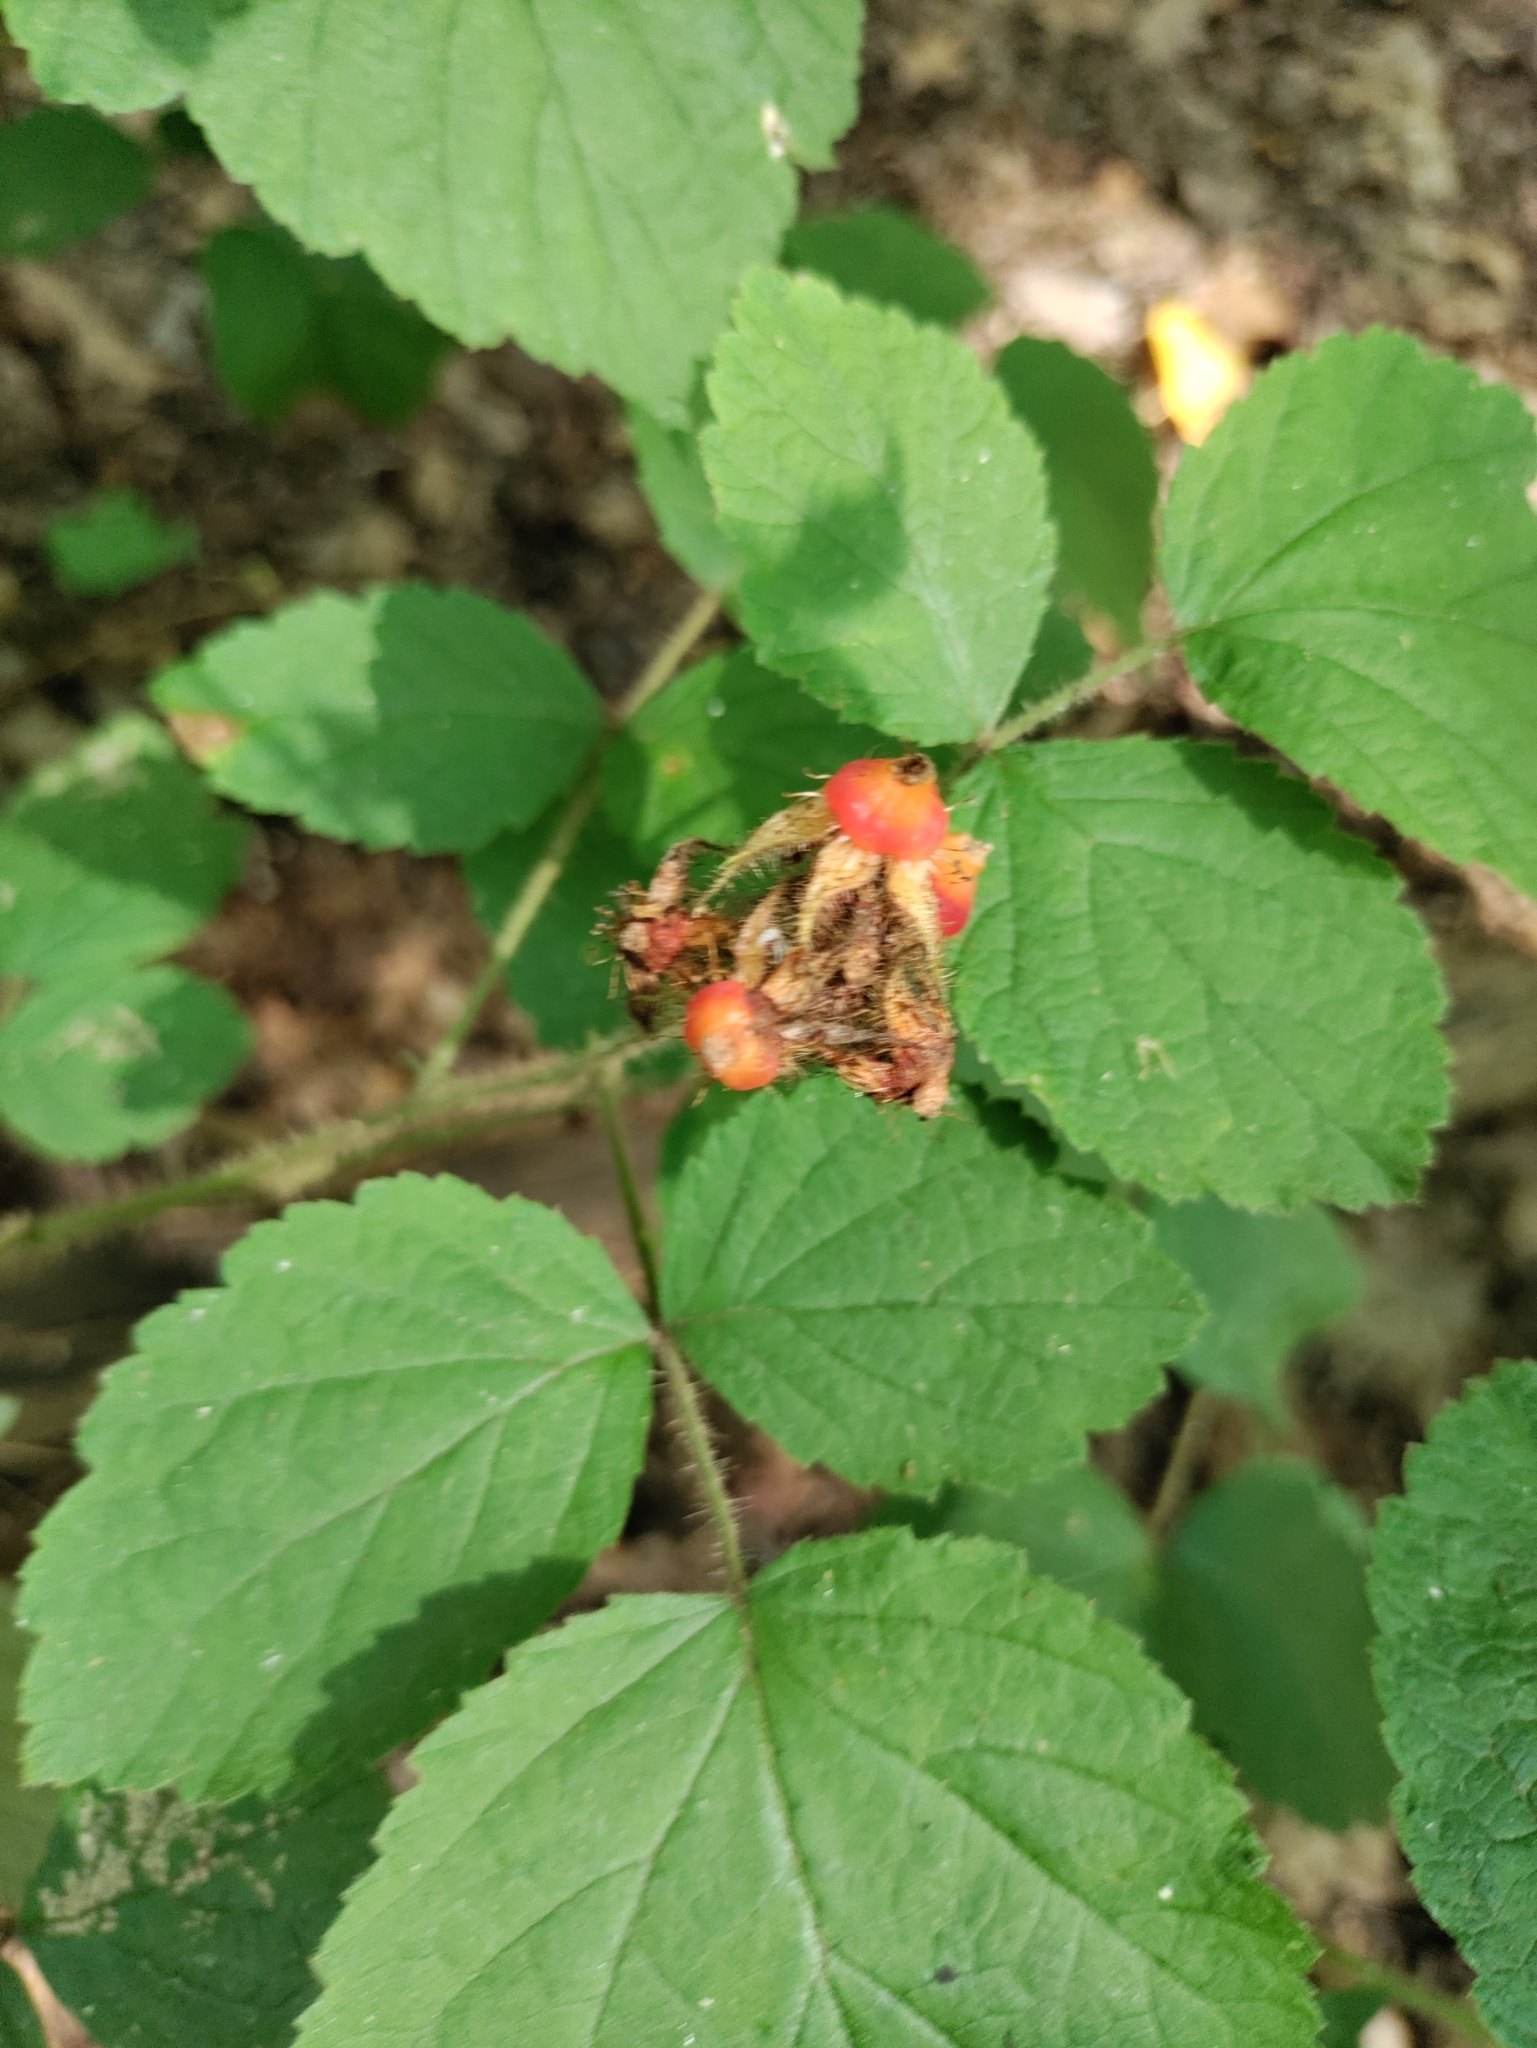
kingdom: Plantae
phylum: Tracheophyta
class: Magnoliopsida
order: Rosales
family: Rosaceae
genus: Rubus
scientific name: Rubus phoenicolasius
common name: Japanese wineberry
